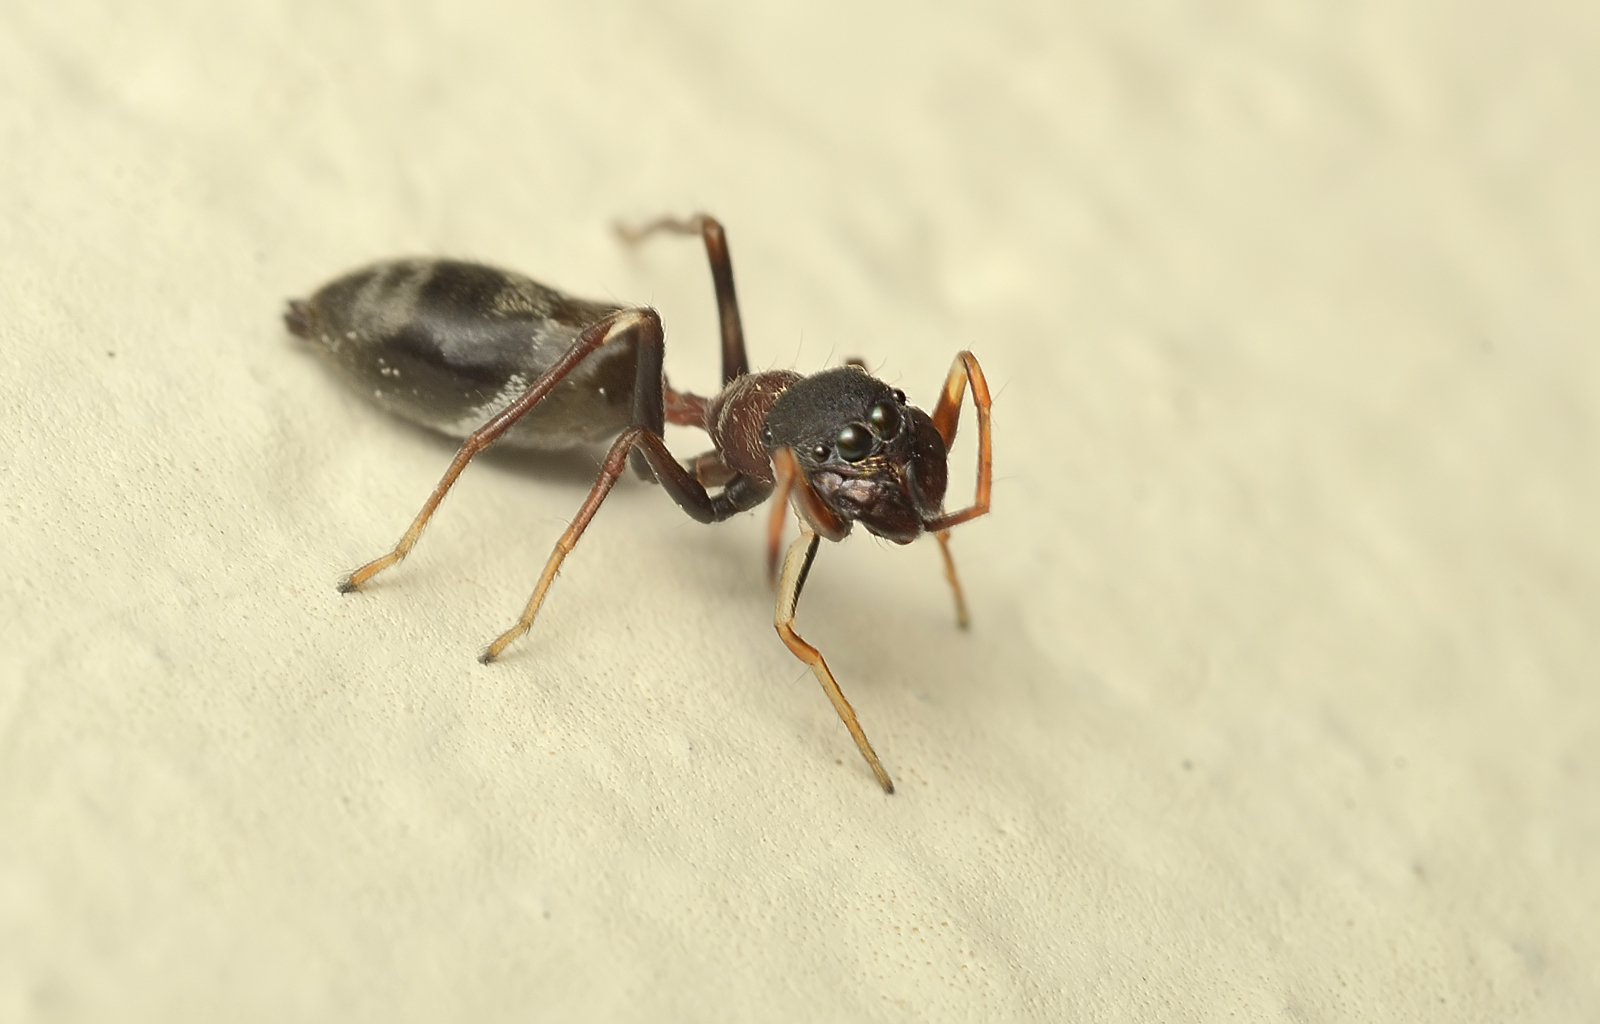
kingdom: Animalia
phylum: Arthropoda
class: Arachnida
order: Araneae
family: Salticidae
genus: Myrmarachne
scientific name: Myrmarachne melanocephala
